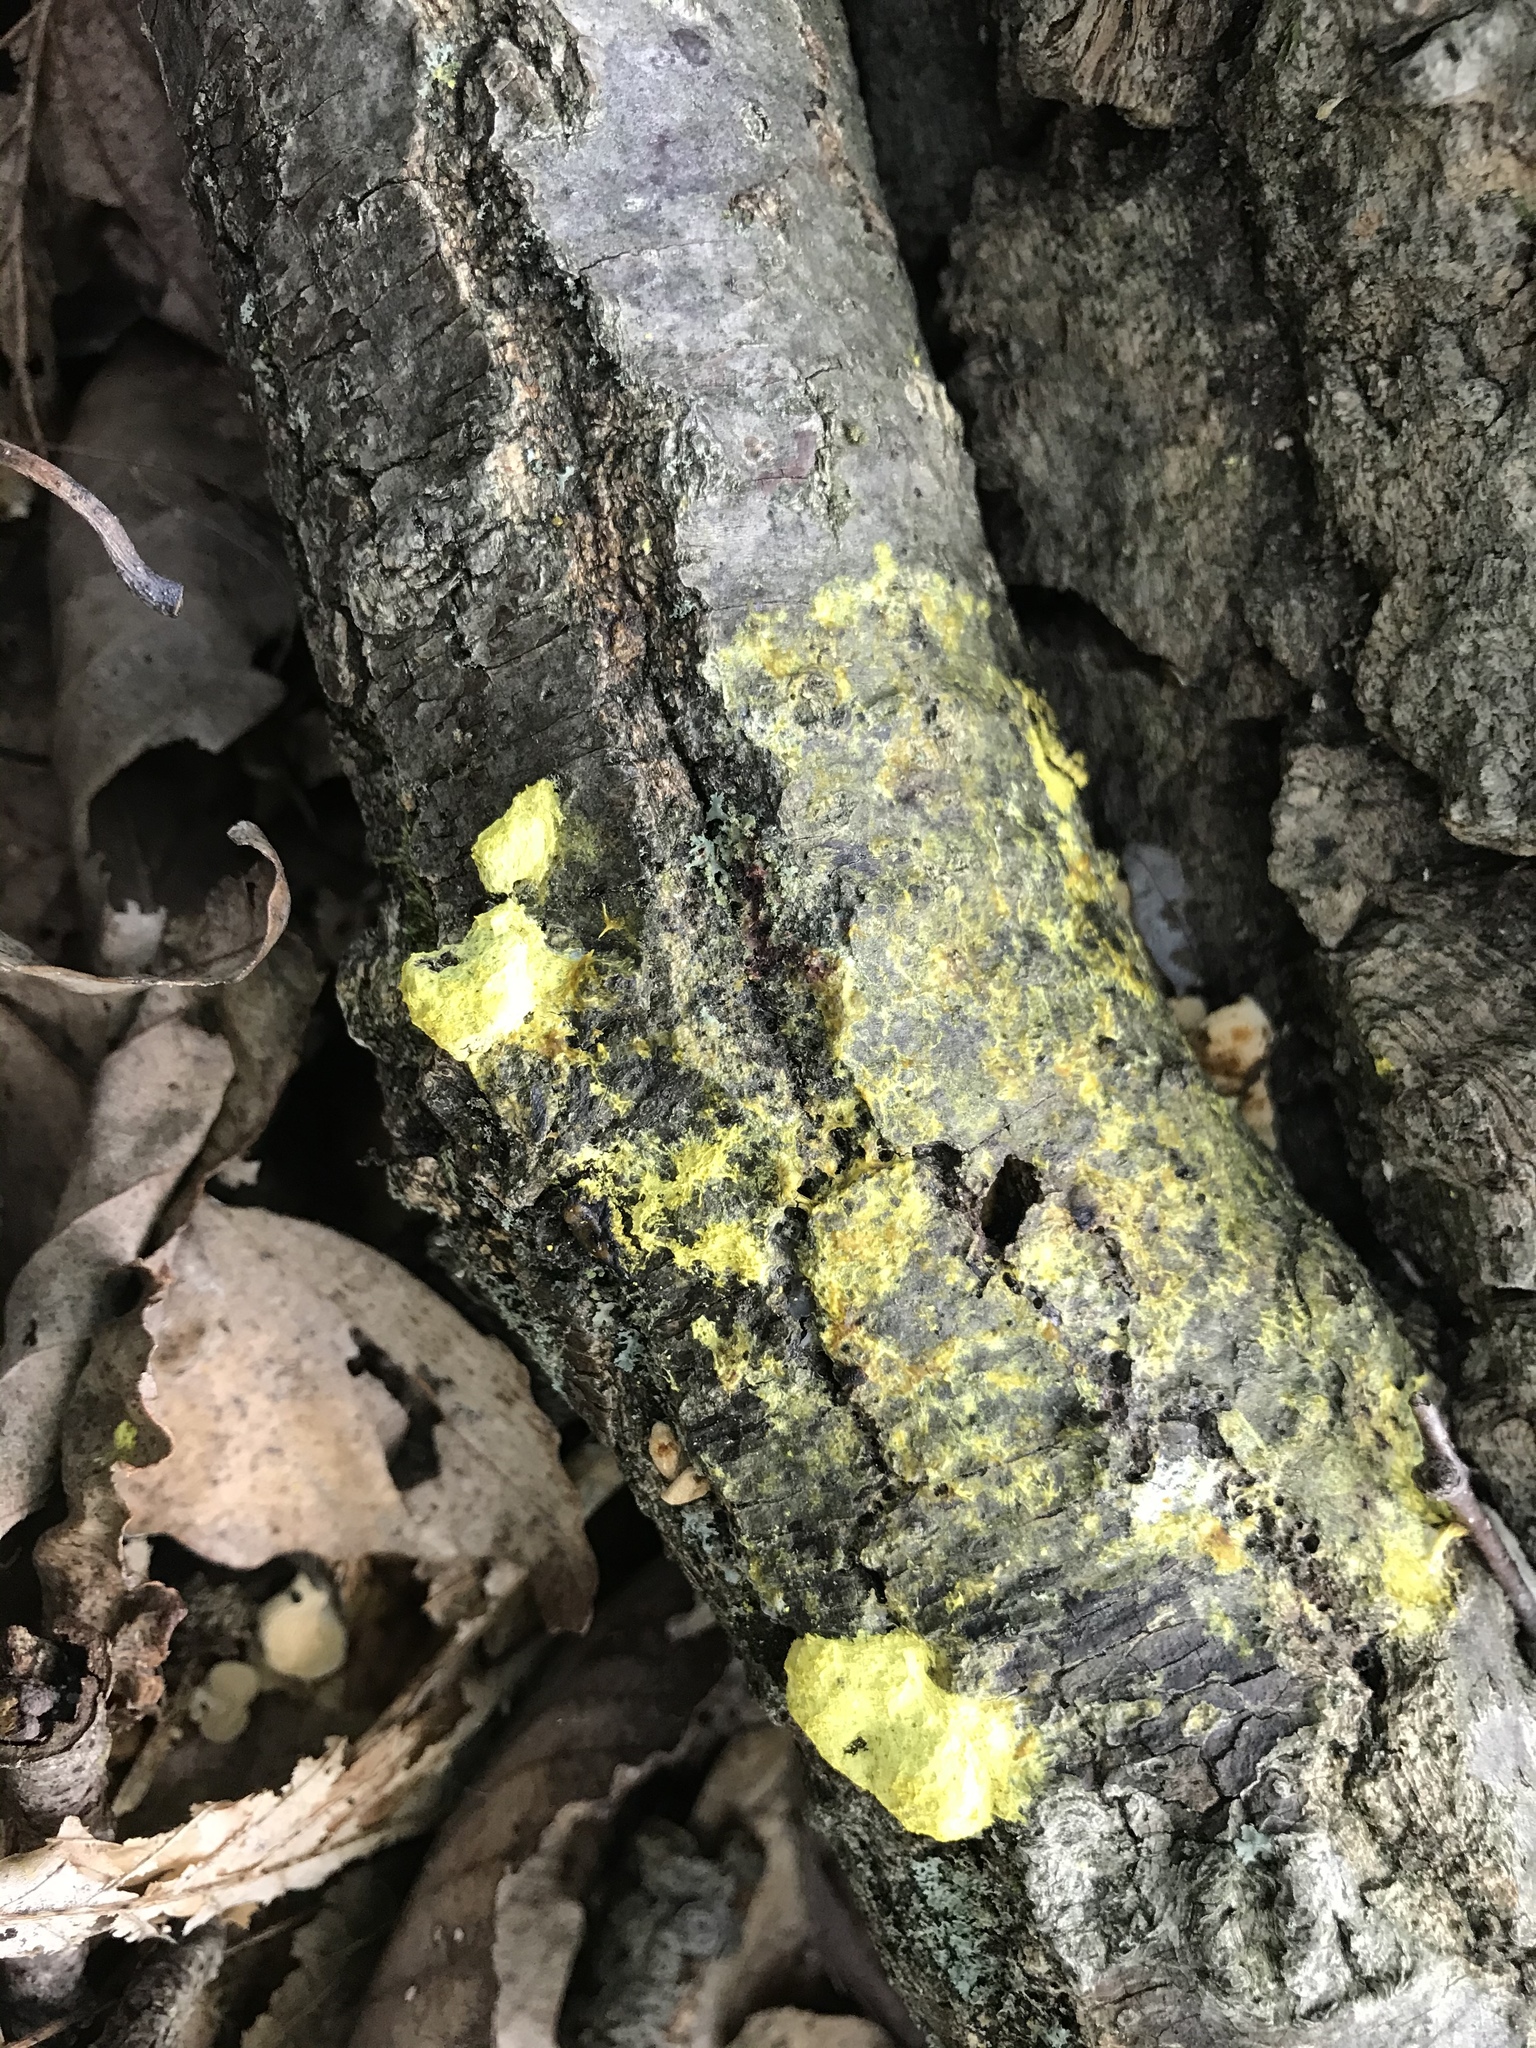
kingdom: Protozoa
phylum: Mycetozoa
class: Myxomycetes
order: Physarales
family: Physaraceae
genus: Fuligo
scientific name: Fuligo septica
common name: Dog vomit slime mold
